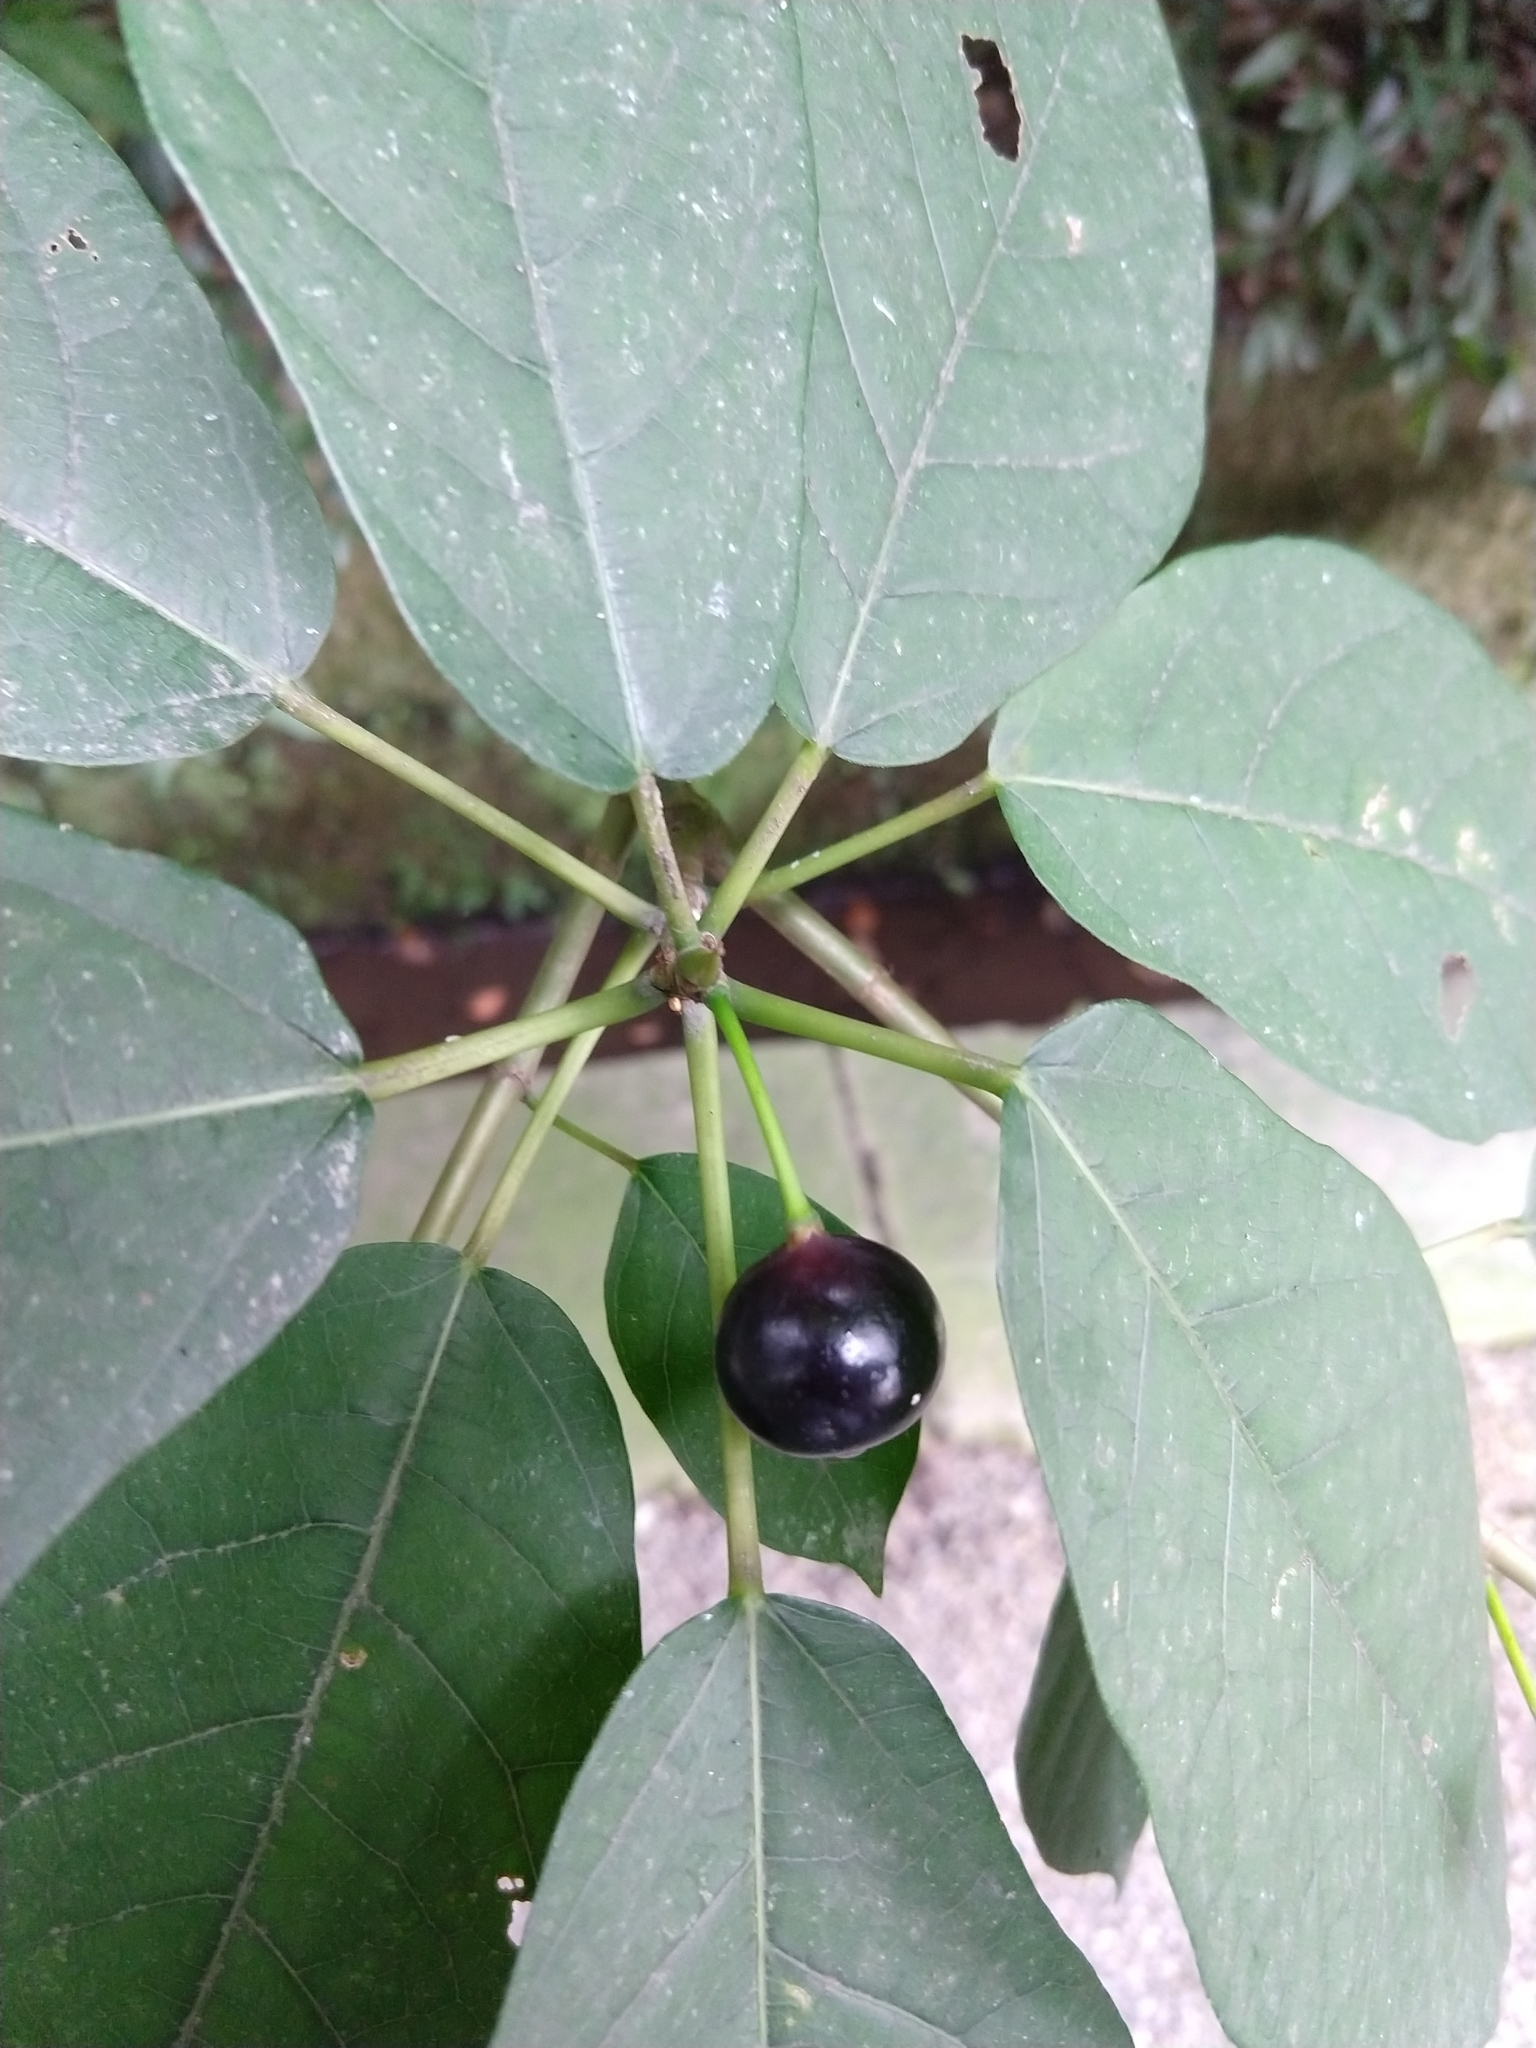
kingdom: Plantae
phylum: Tracheophyta
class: Magnoliopsida
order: Rosales
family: Moraceae
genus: Ficus
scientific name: Ficus erecta
